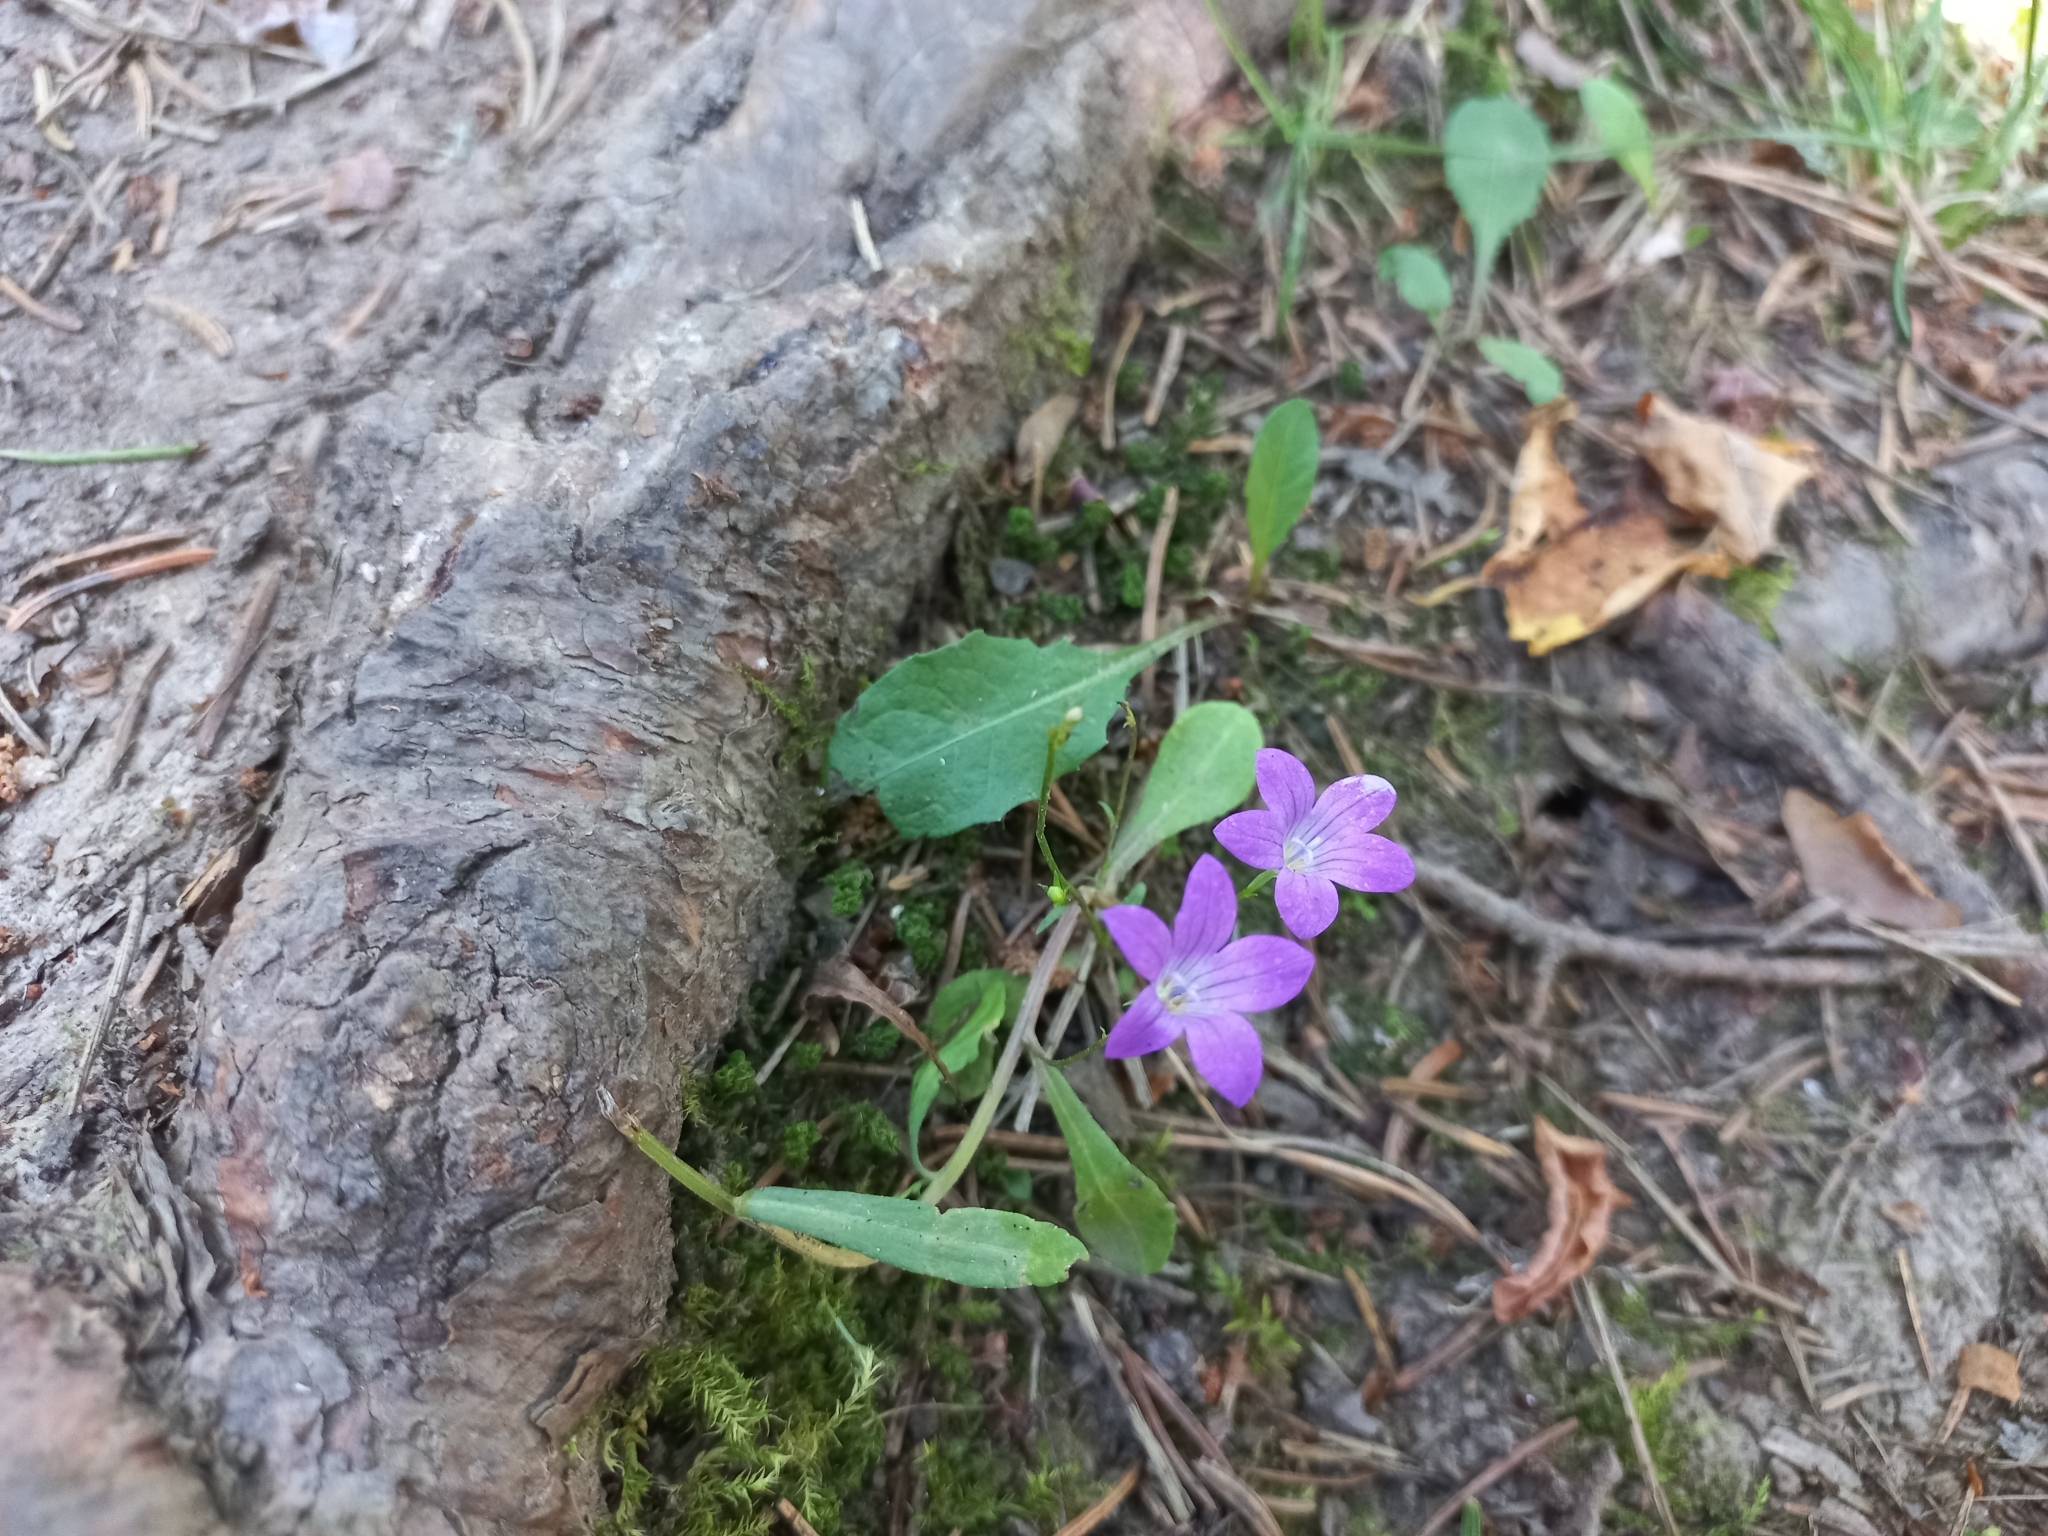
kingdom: Plantae
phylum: Tracheophyta
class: Magnoliopsida
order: Asterales
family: Campanulaceae
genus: Campanula
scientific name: Campanula patula
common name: Spreading bellflower
